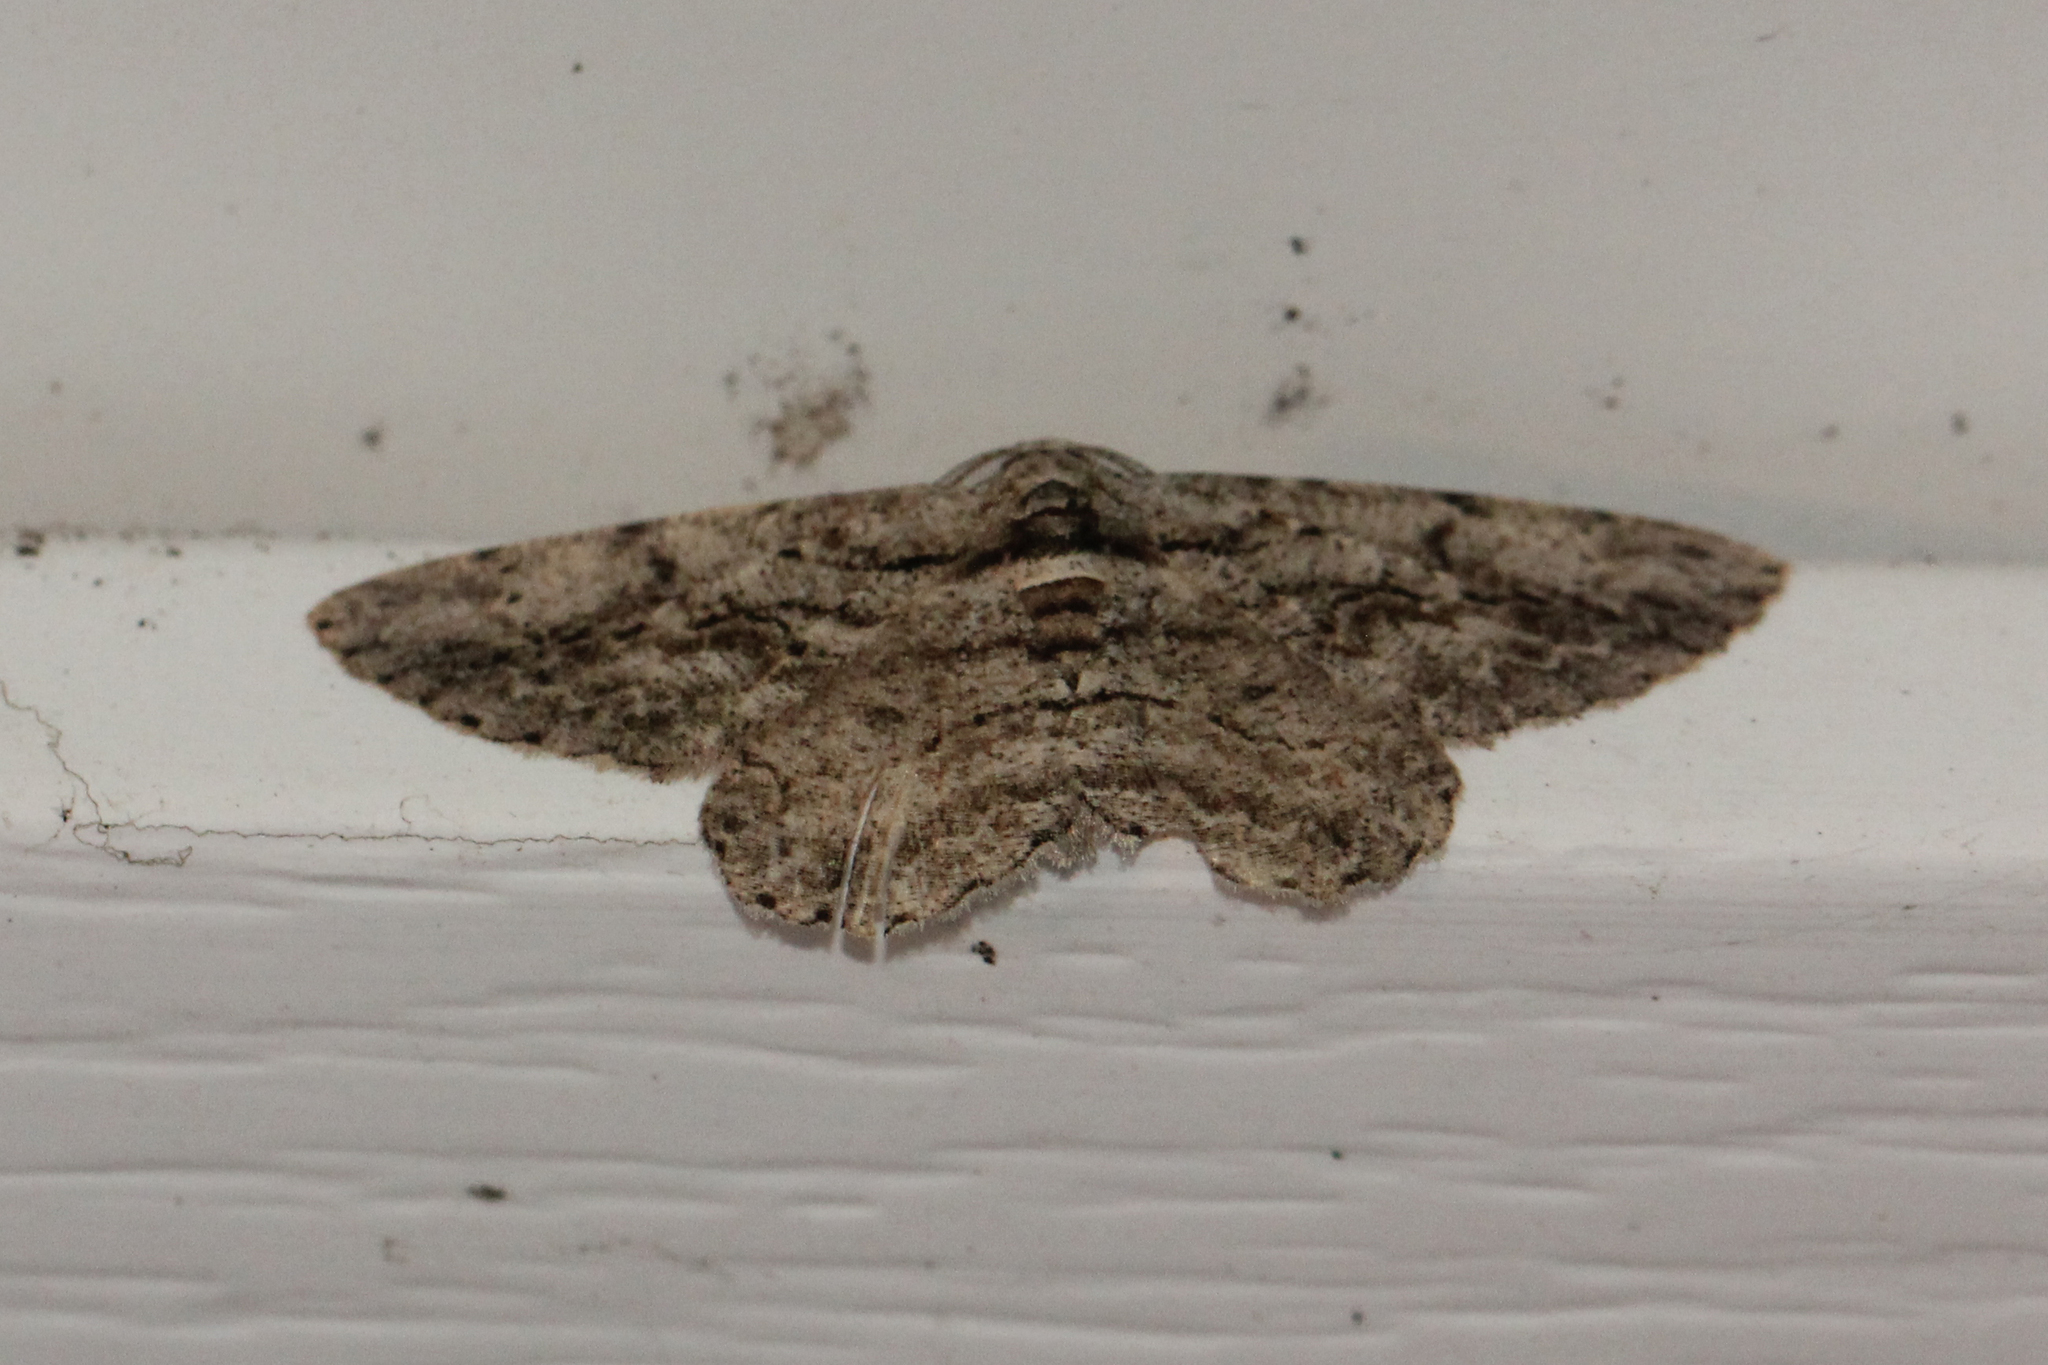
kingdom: Animalia
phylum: Arthropoda
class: Insecta
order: Lepidoptera
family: Geometridae
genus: Anavitrinella
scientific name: Anavitrinella pampinaria
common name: Common gray
